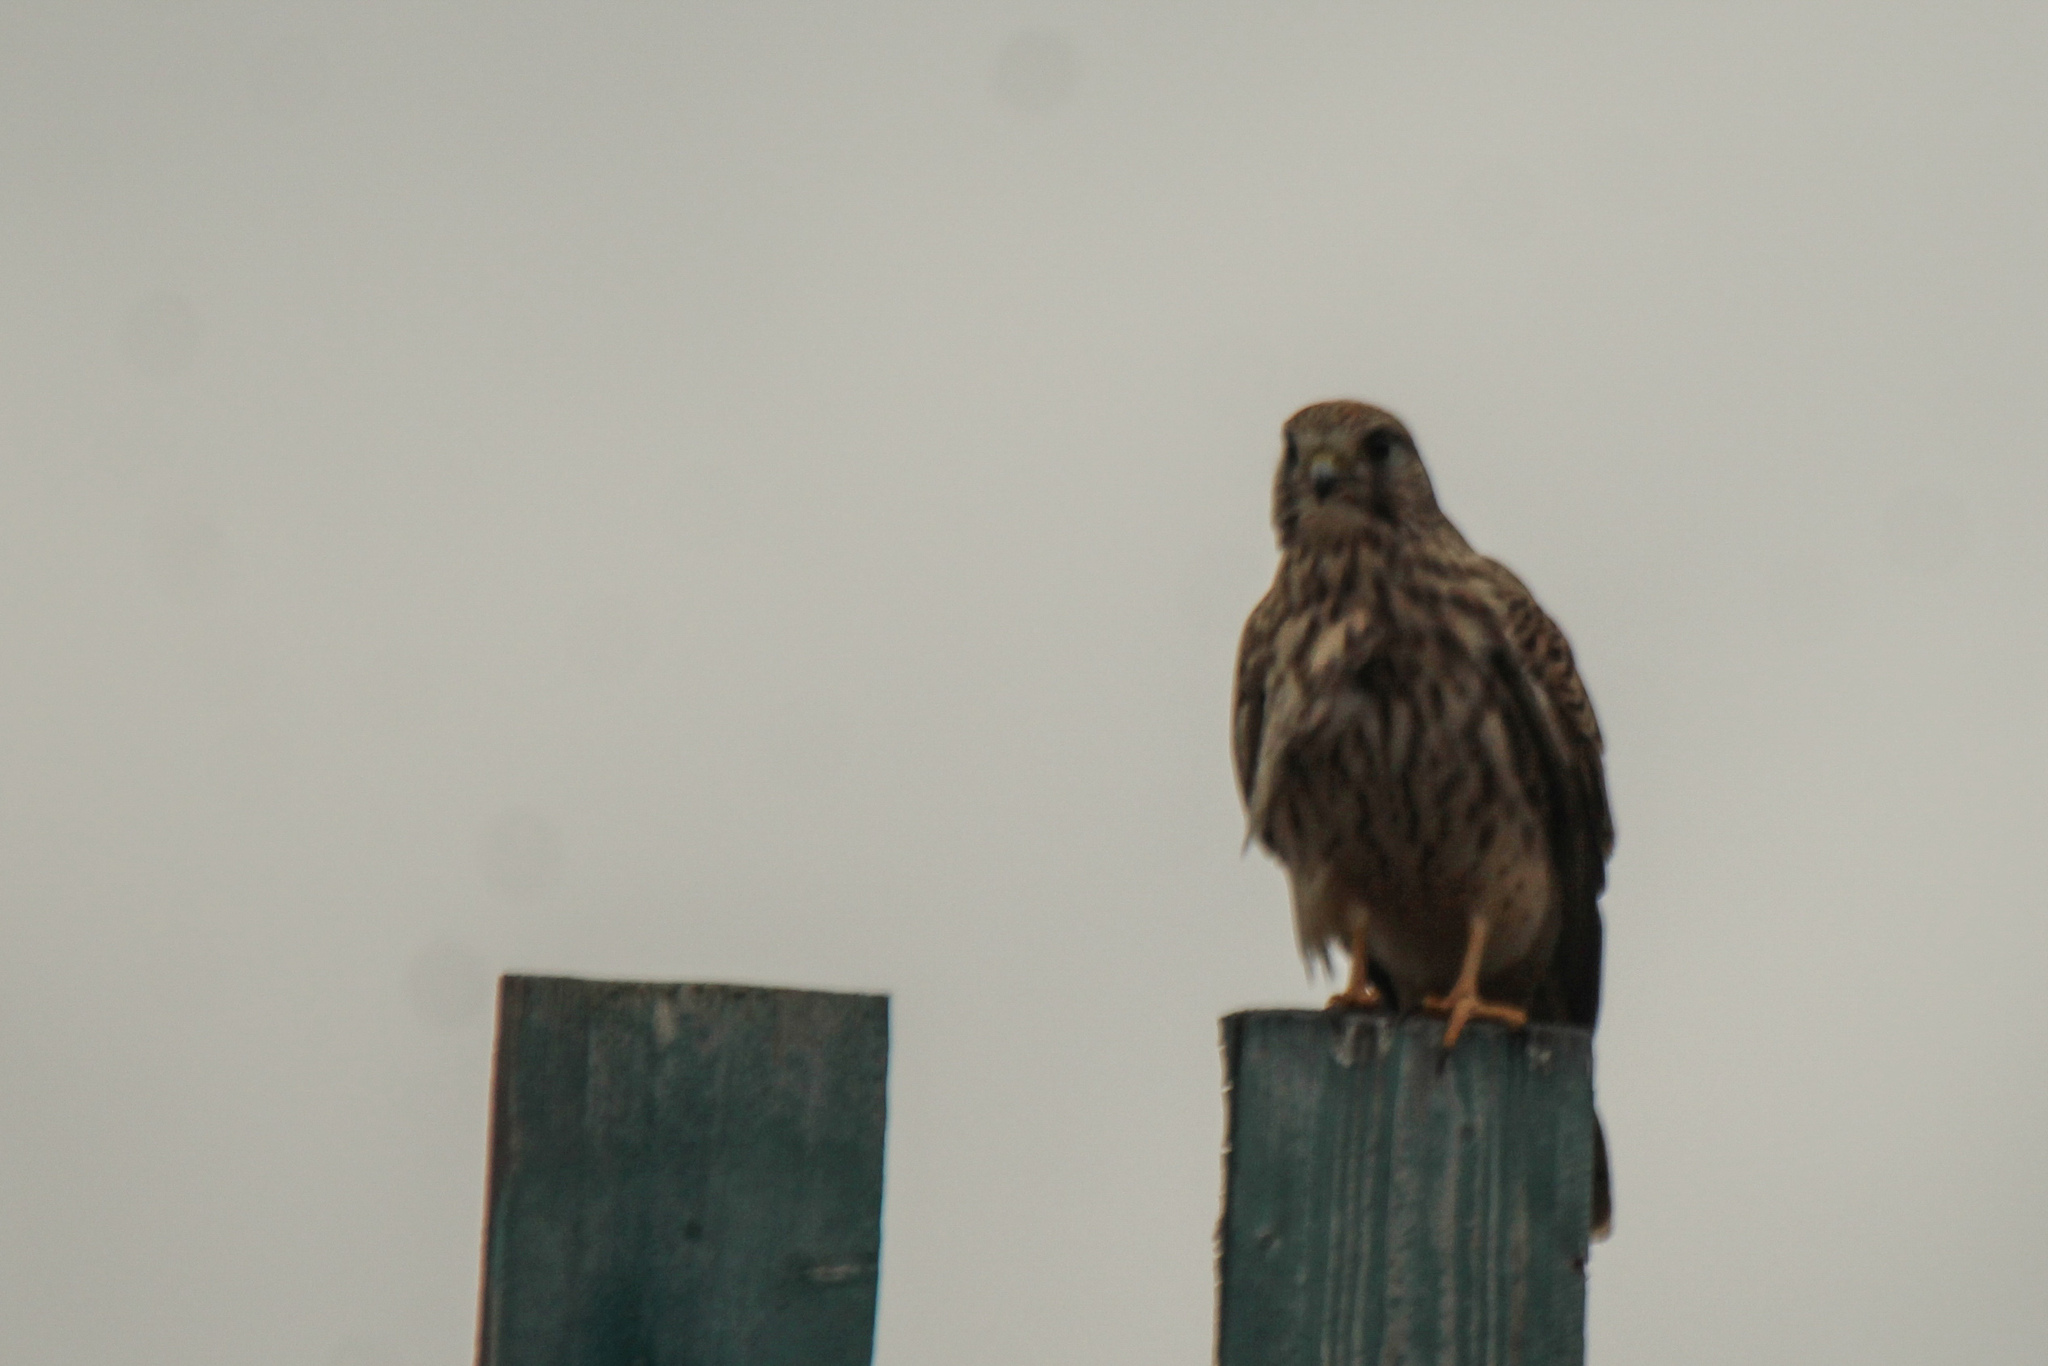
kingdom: Animalia
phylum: Chordata
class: Aves
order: Falconiformes
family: Falconidae
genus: Falco
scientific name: Falco tinnunculus
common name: Common kestrel
